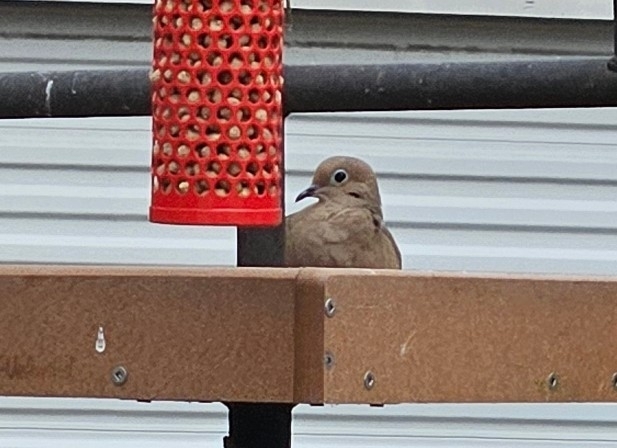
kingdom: Animalia
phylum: Chordata
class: Aves
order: Columbiformes
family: Columbidae
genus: Zenaida
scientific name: Zenaida macroura
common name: Mourning dove
